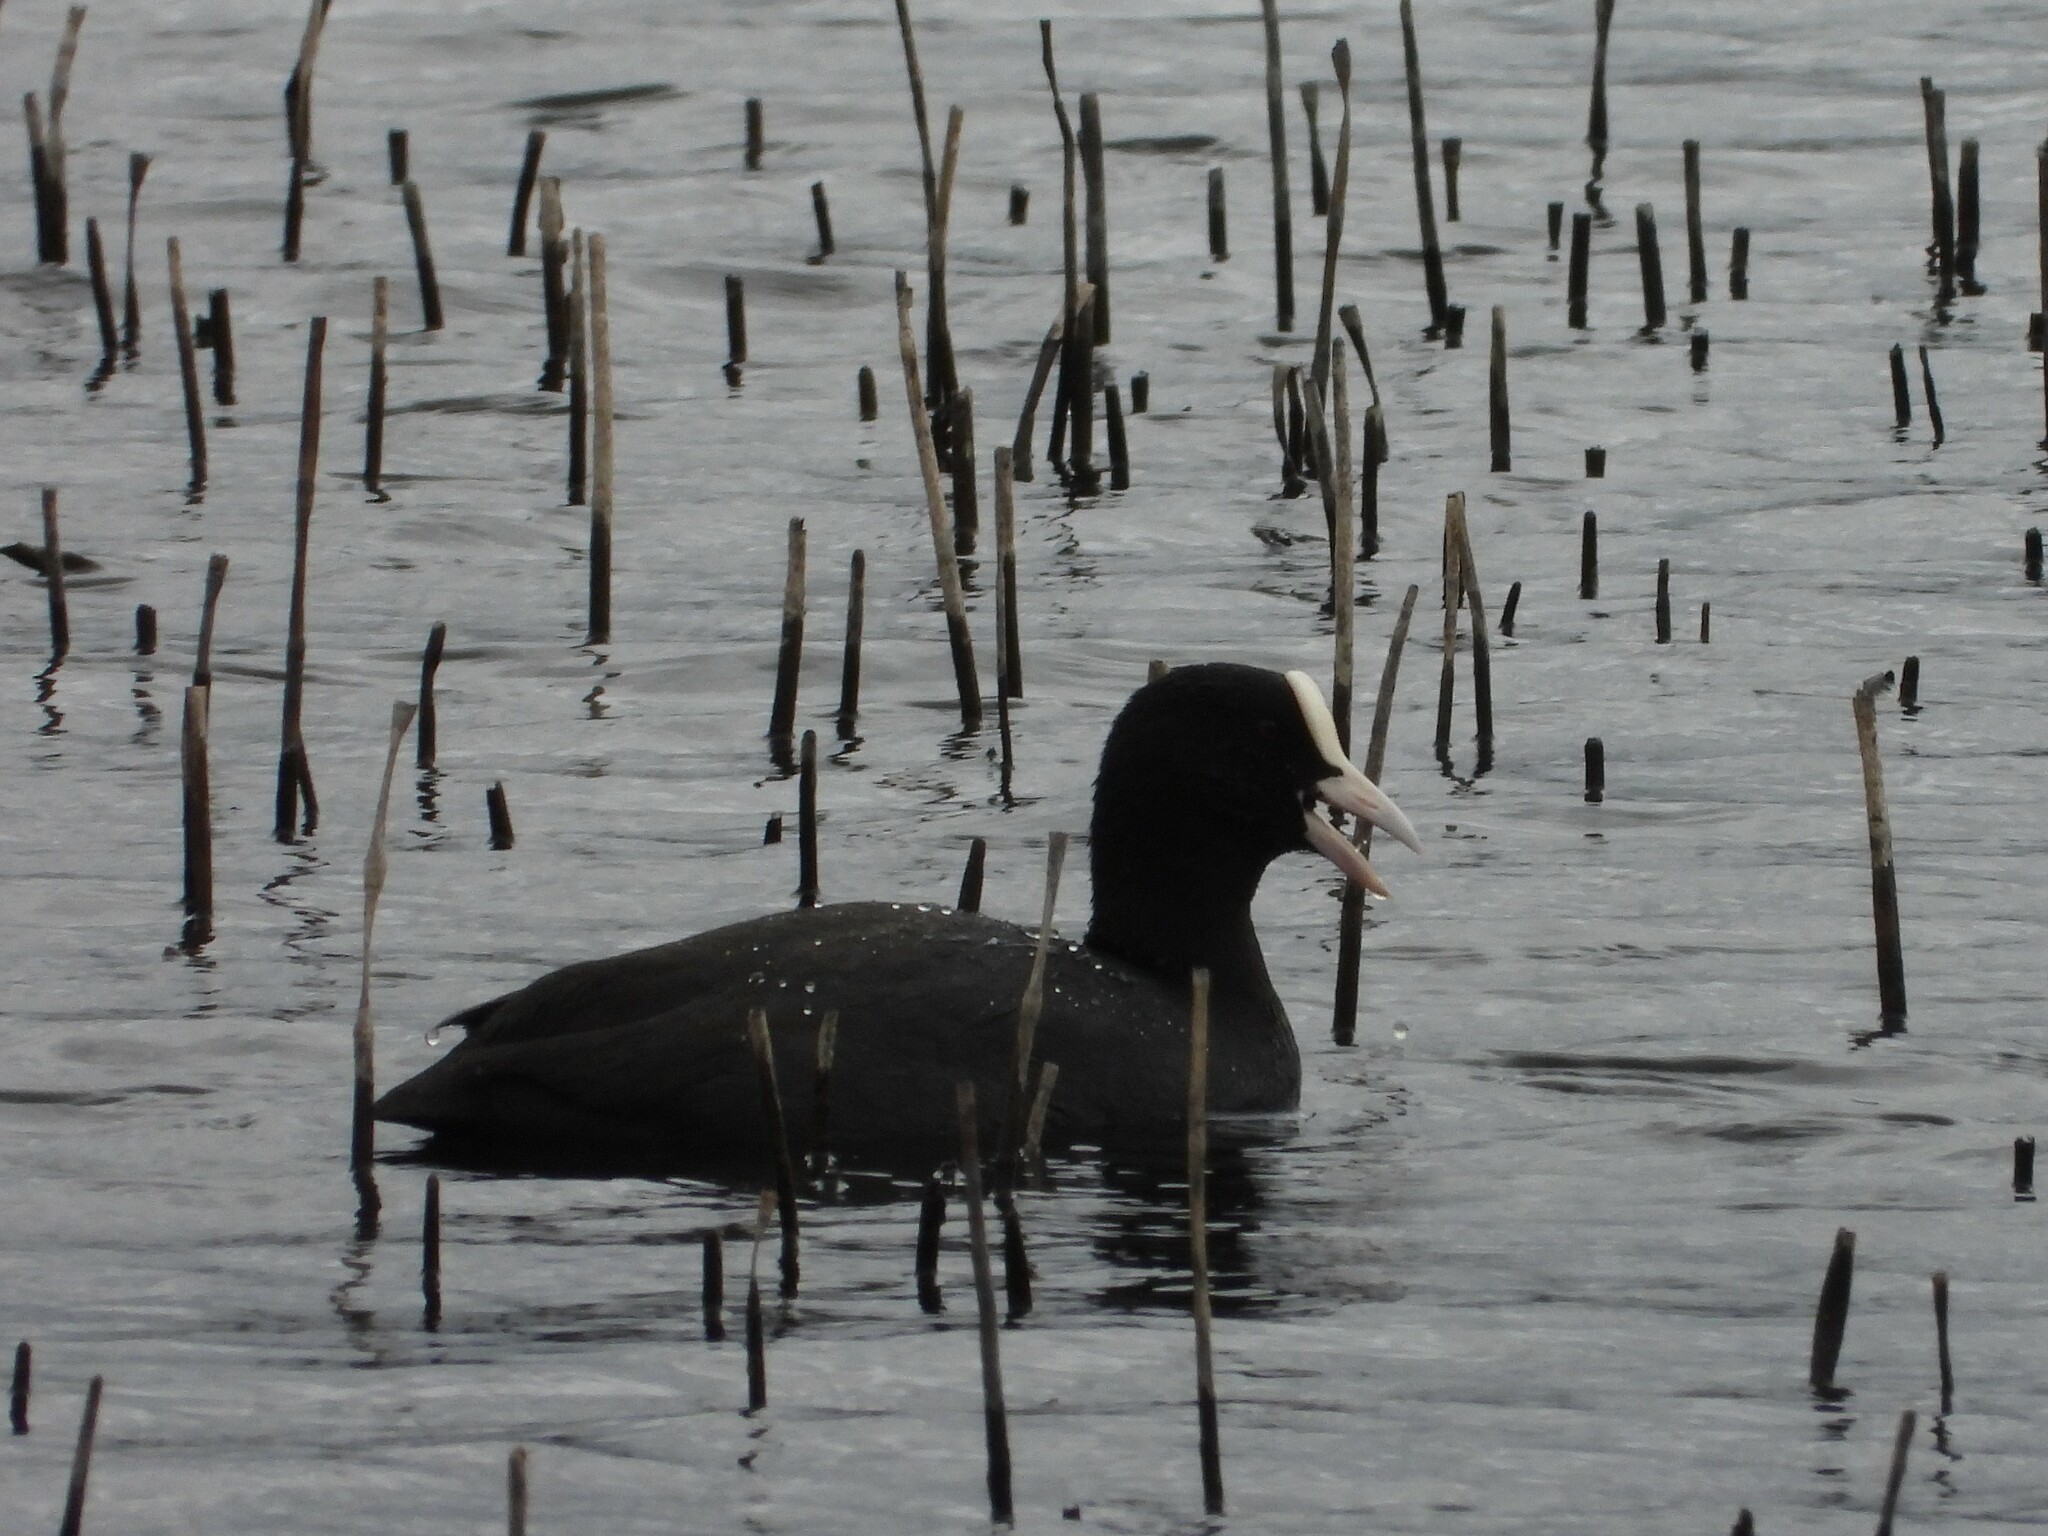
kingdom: Animalia
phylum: Chordata
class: Aves
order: Gruiformes
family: Rallidae
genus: Fulica
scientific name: Fulica atra
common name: Eurasian coot
